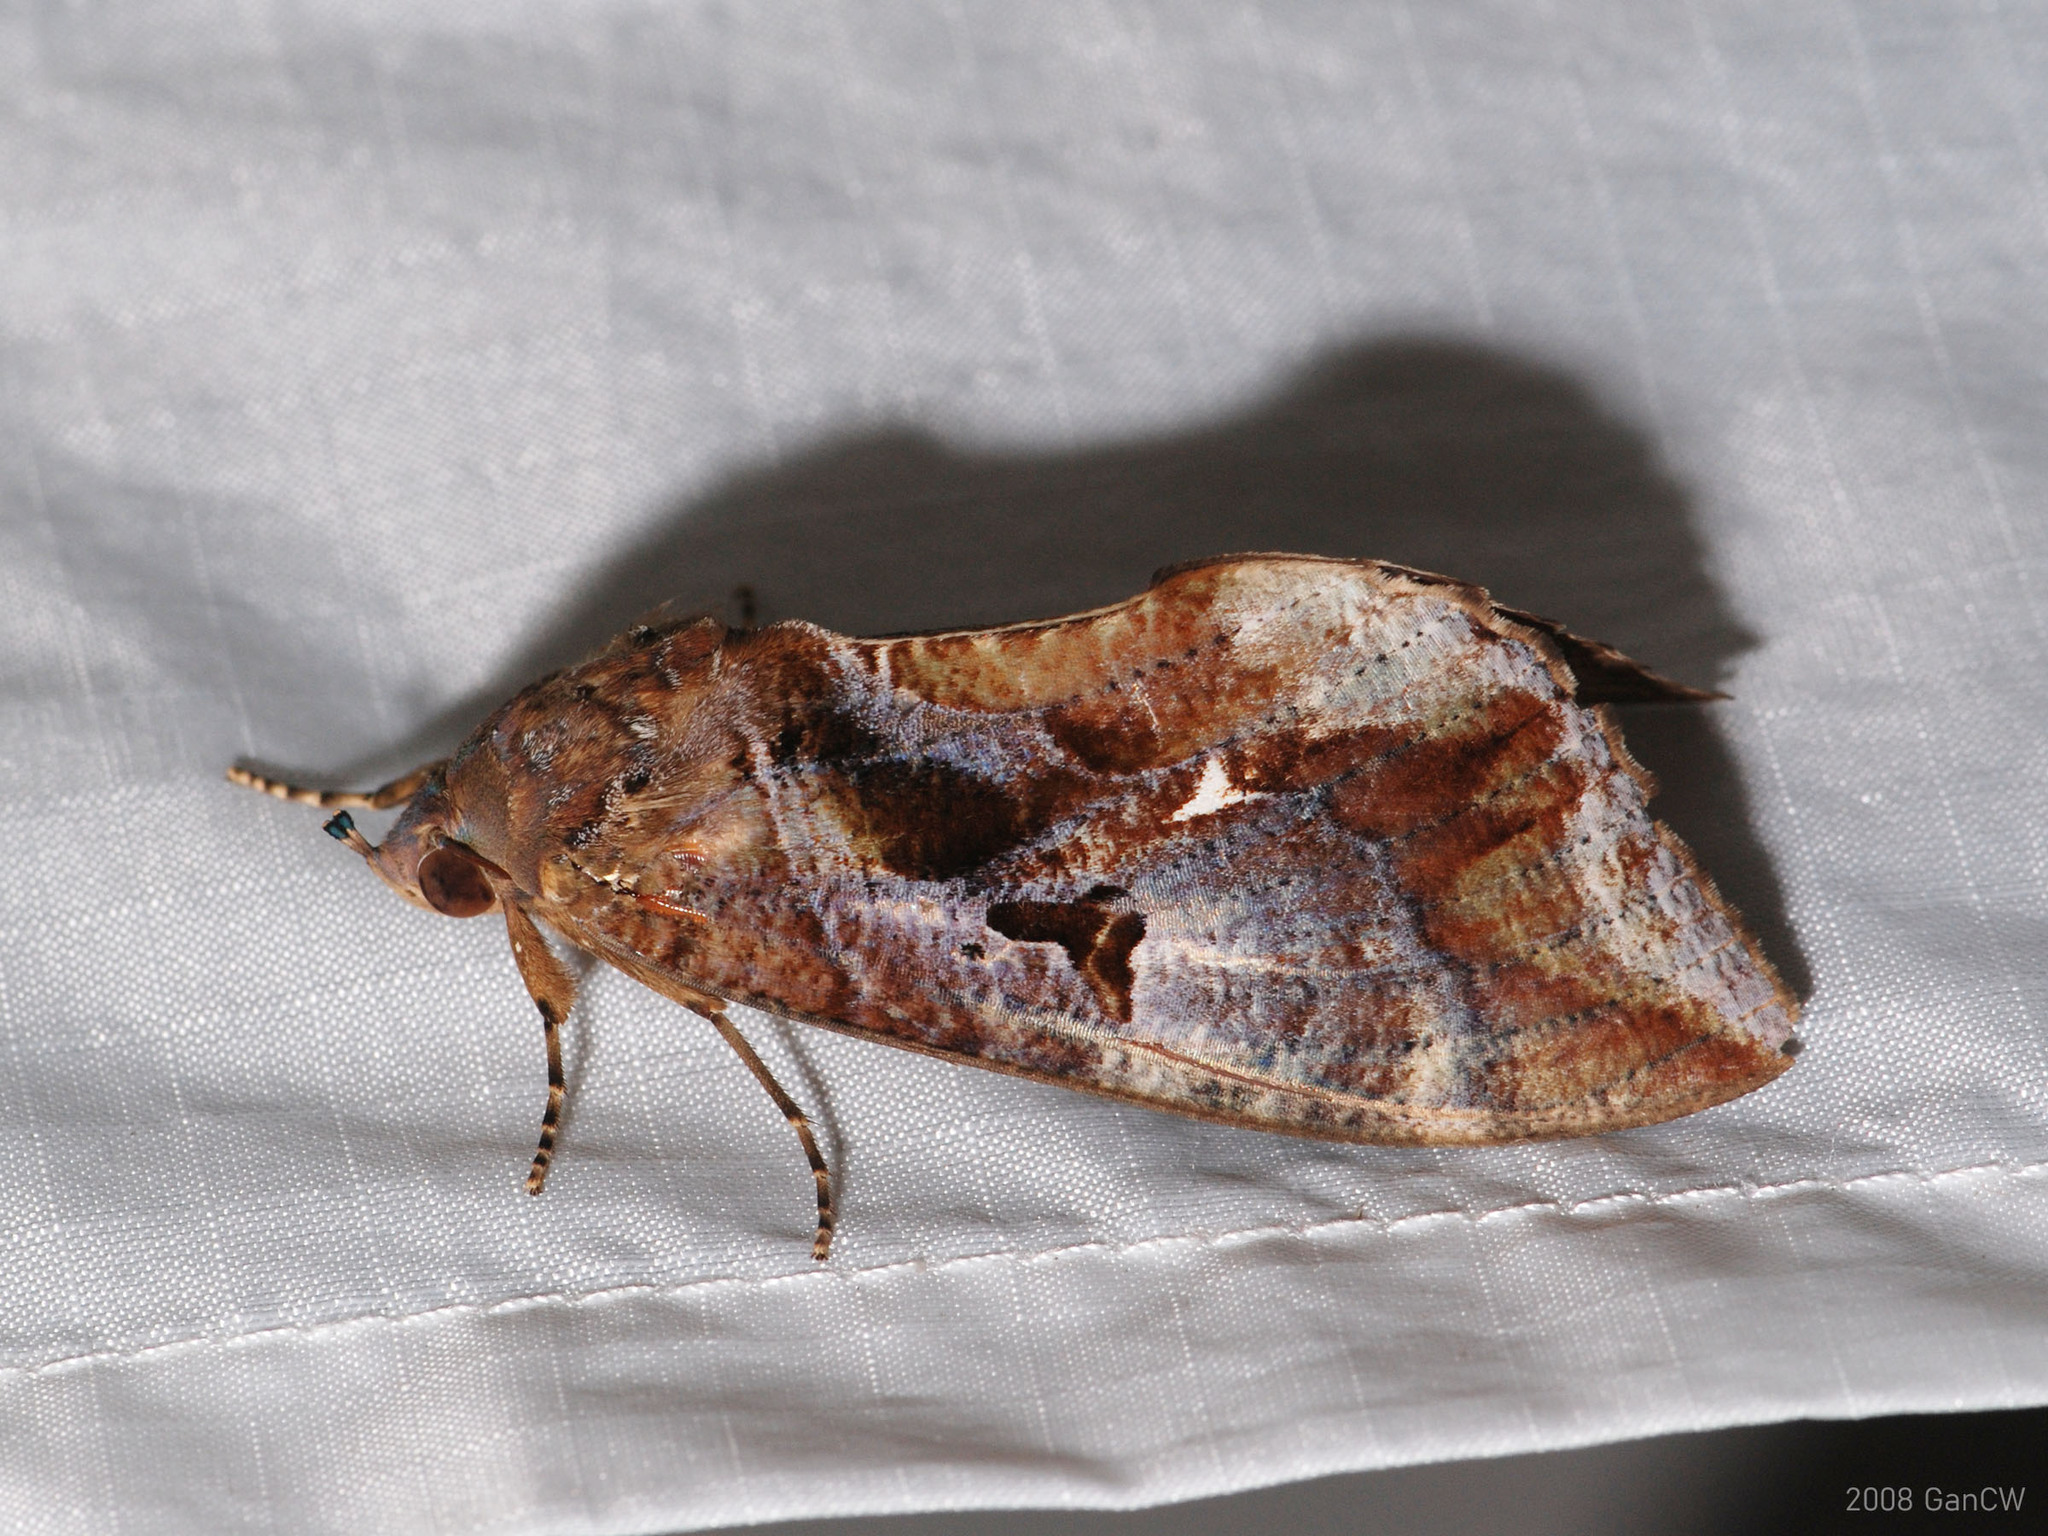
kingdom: Animalia
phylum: Arthropoda
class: Insecta
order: Lepidoptera
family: Erebidae
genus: Eudocima
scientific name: Eudocima phalonia
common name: Wasp
